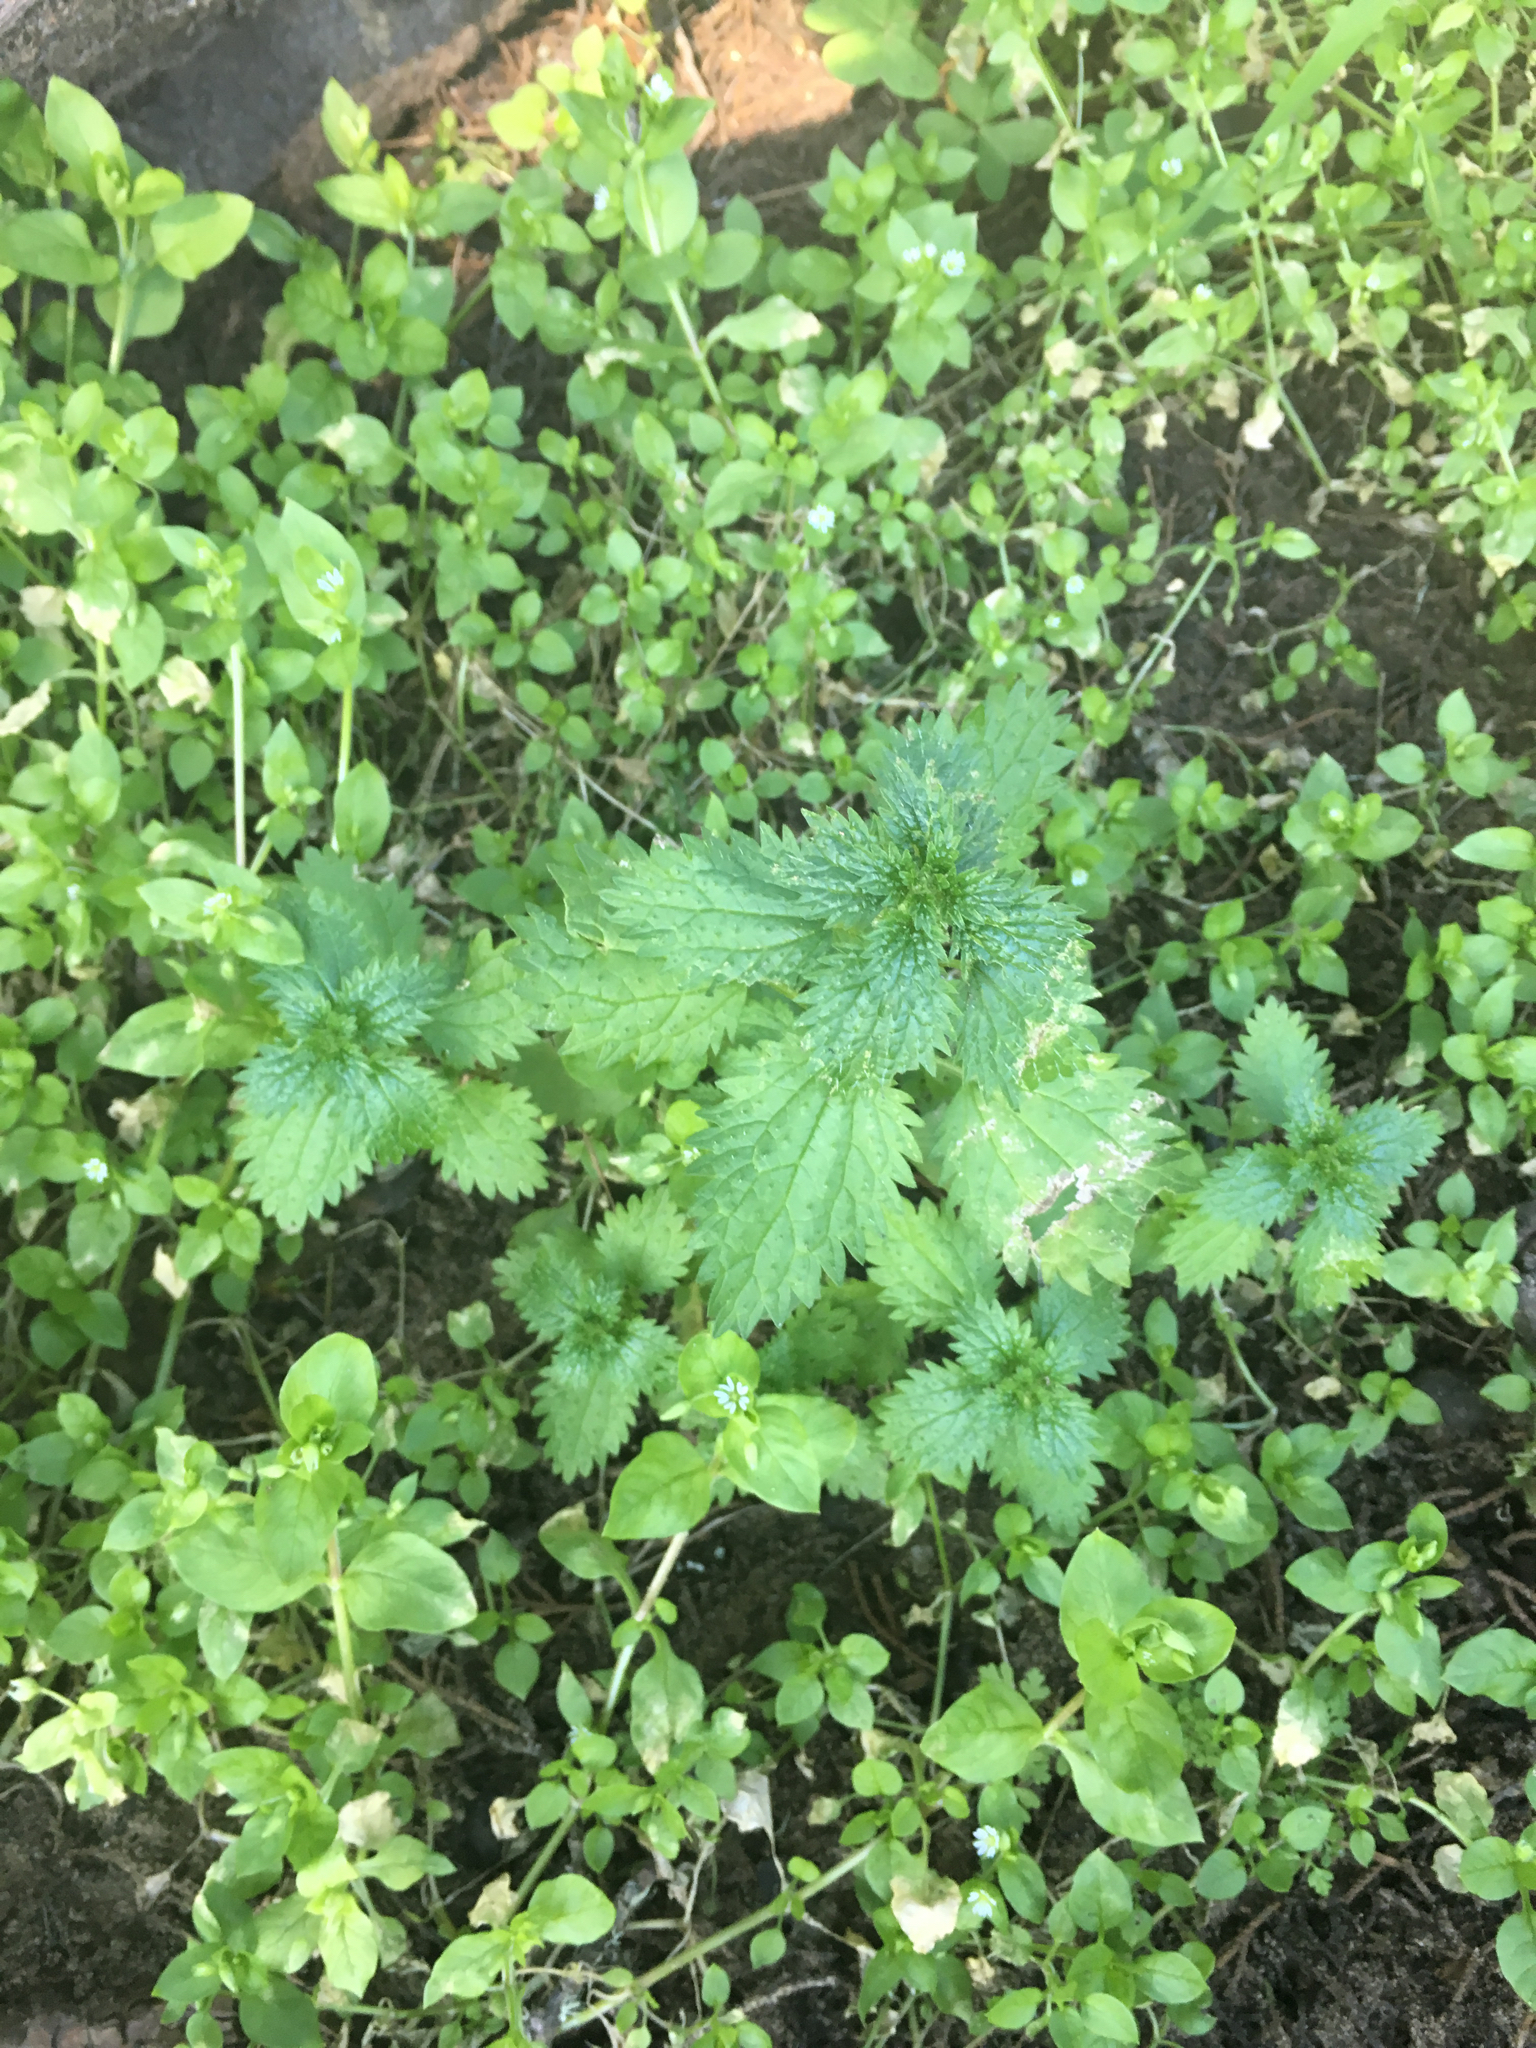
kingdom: Plantae
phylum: Tracheophyta
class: Magnoliopsida
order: Rosales
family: Urticaceae
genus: Urtica
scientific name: Urtica urens
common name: Dwarf nettle
